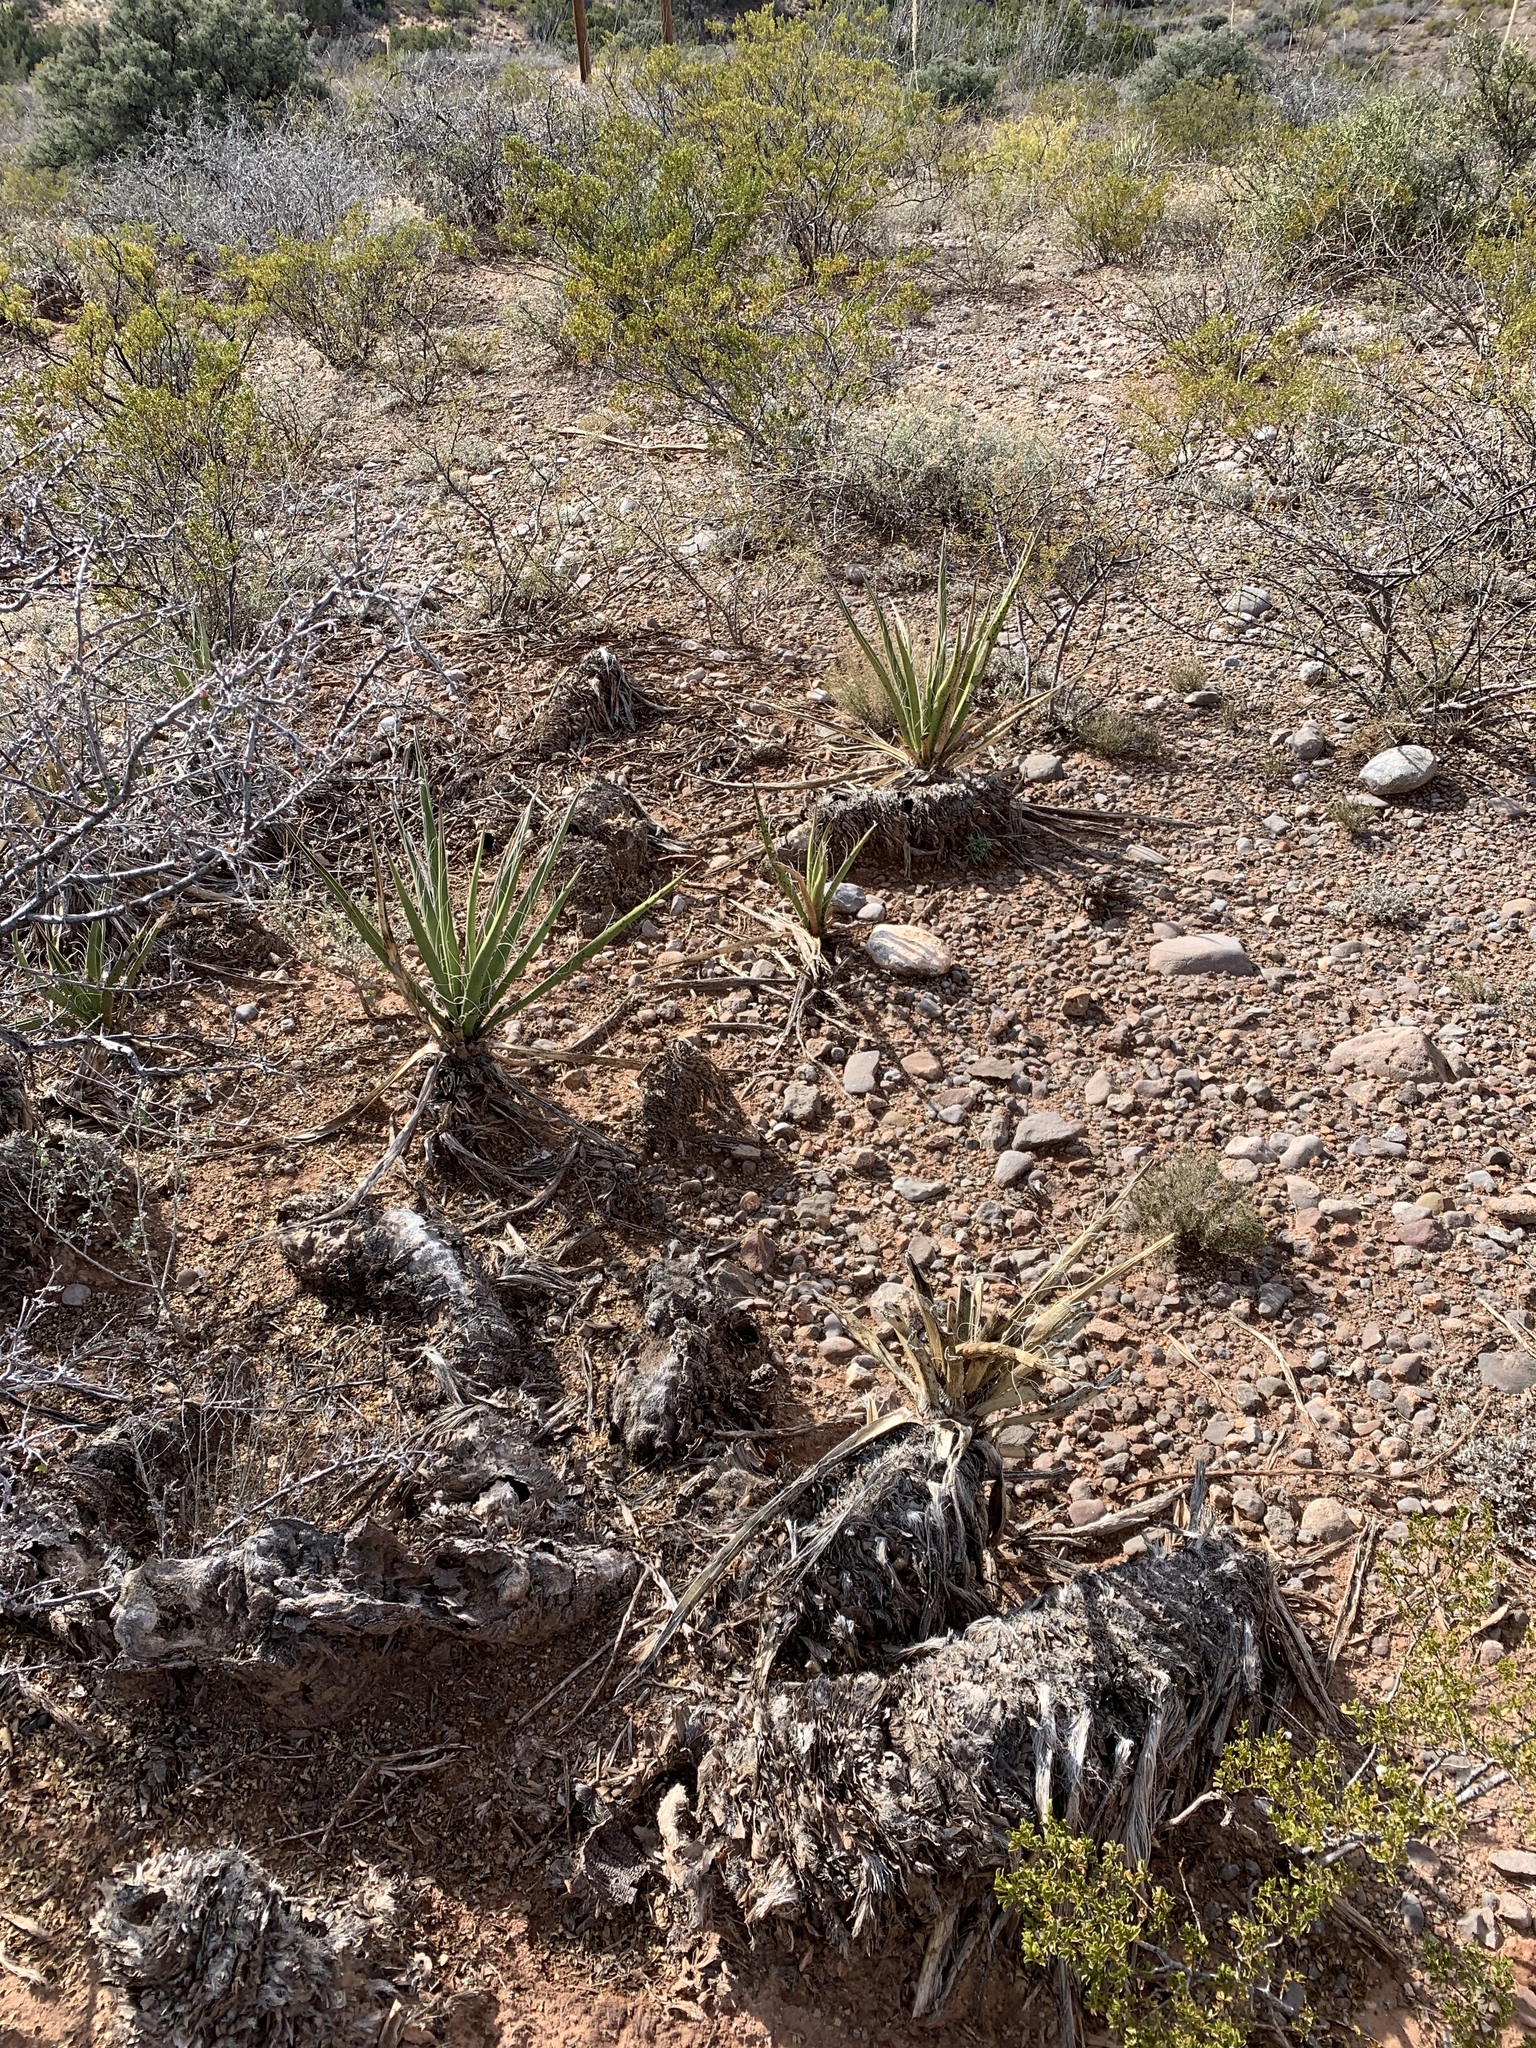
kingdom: Plantae
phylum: Tracheophyta
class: Liliopsida
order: Asparagales
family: Asparagaceae
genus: Yucca
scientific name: Yucca baccata
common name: Banana yucca
